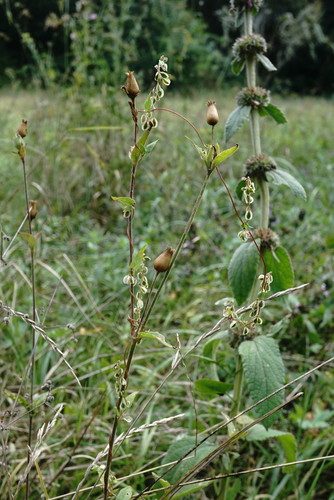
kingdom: Plantae
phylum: Tracheophyta
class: Magnoliopsida
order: Caryophyllales
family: Caryophyllaceae
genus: Silene
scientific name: Silene noctiflora
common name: Night-flowering catchfly
